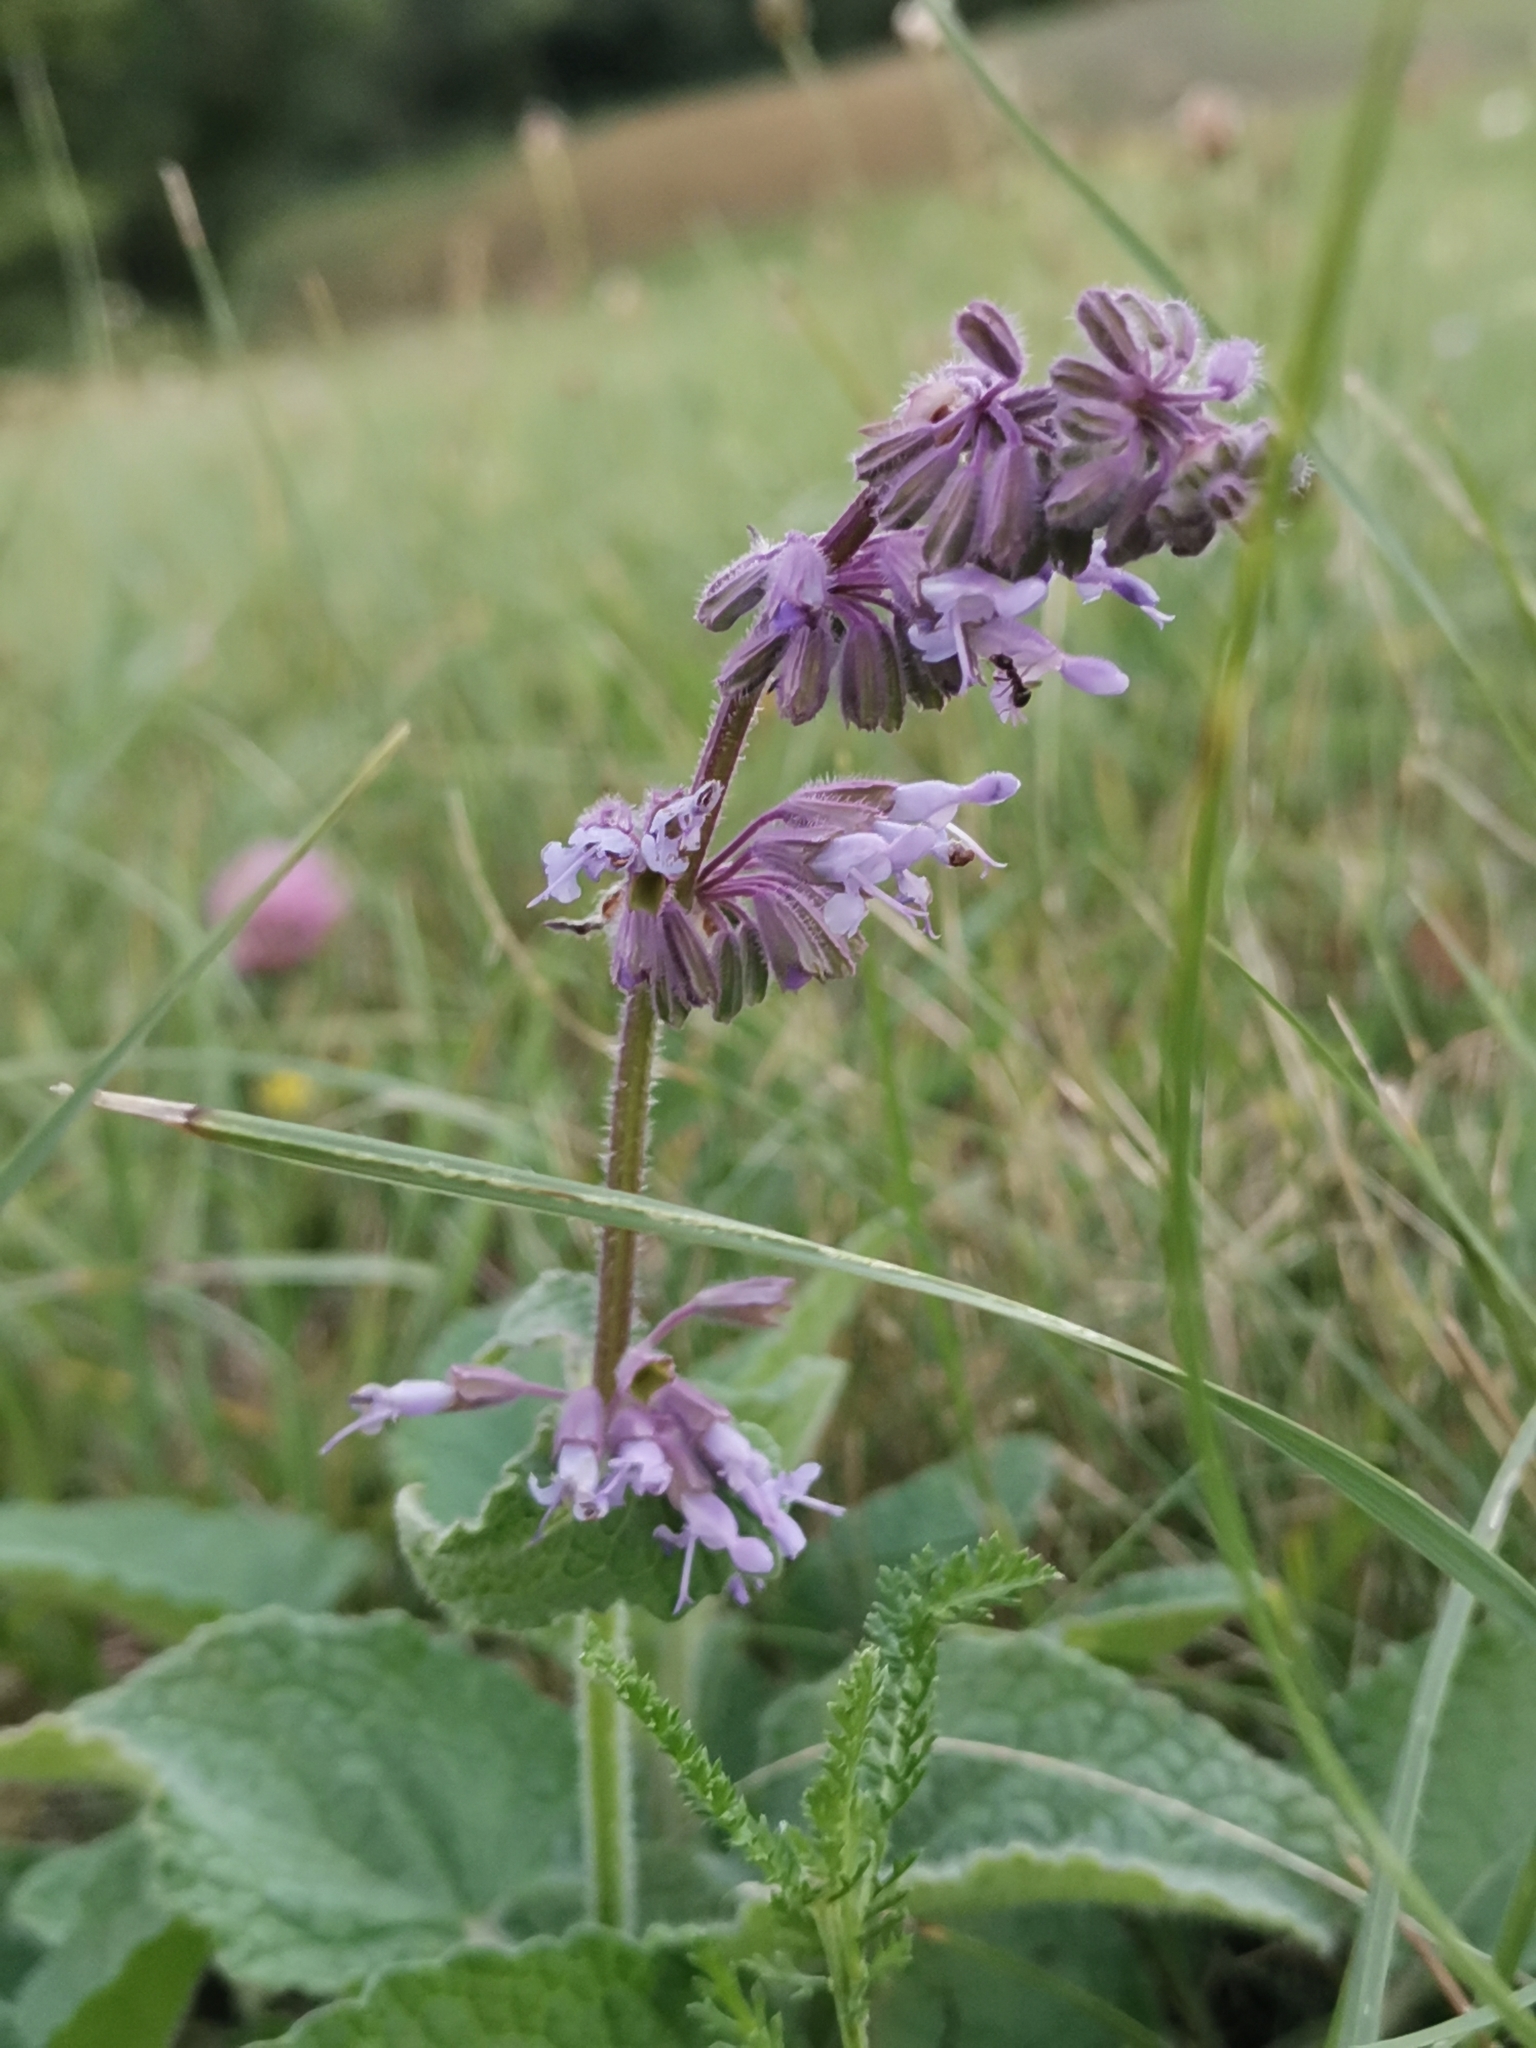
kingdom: Plantae
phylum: Tracheophyta
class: Magnoliopsida
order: Lamiales
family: Lamiaceae
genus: Salvia
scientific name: Salvia verticillata
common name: Whorled clary
